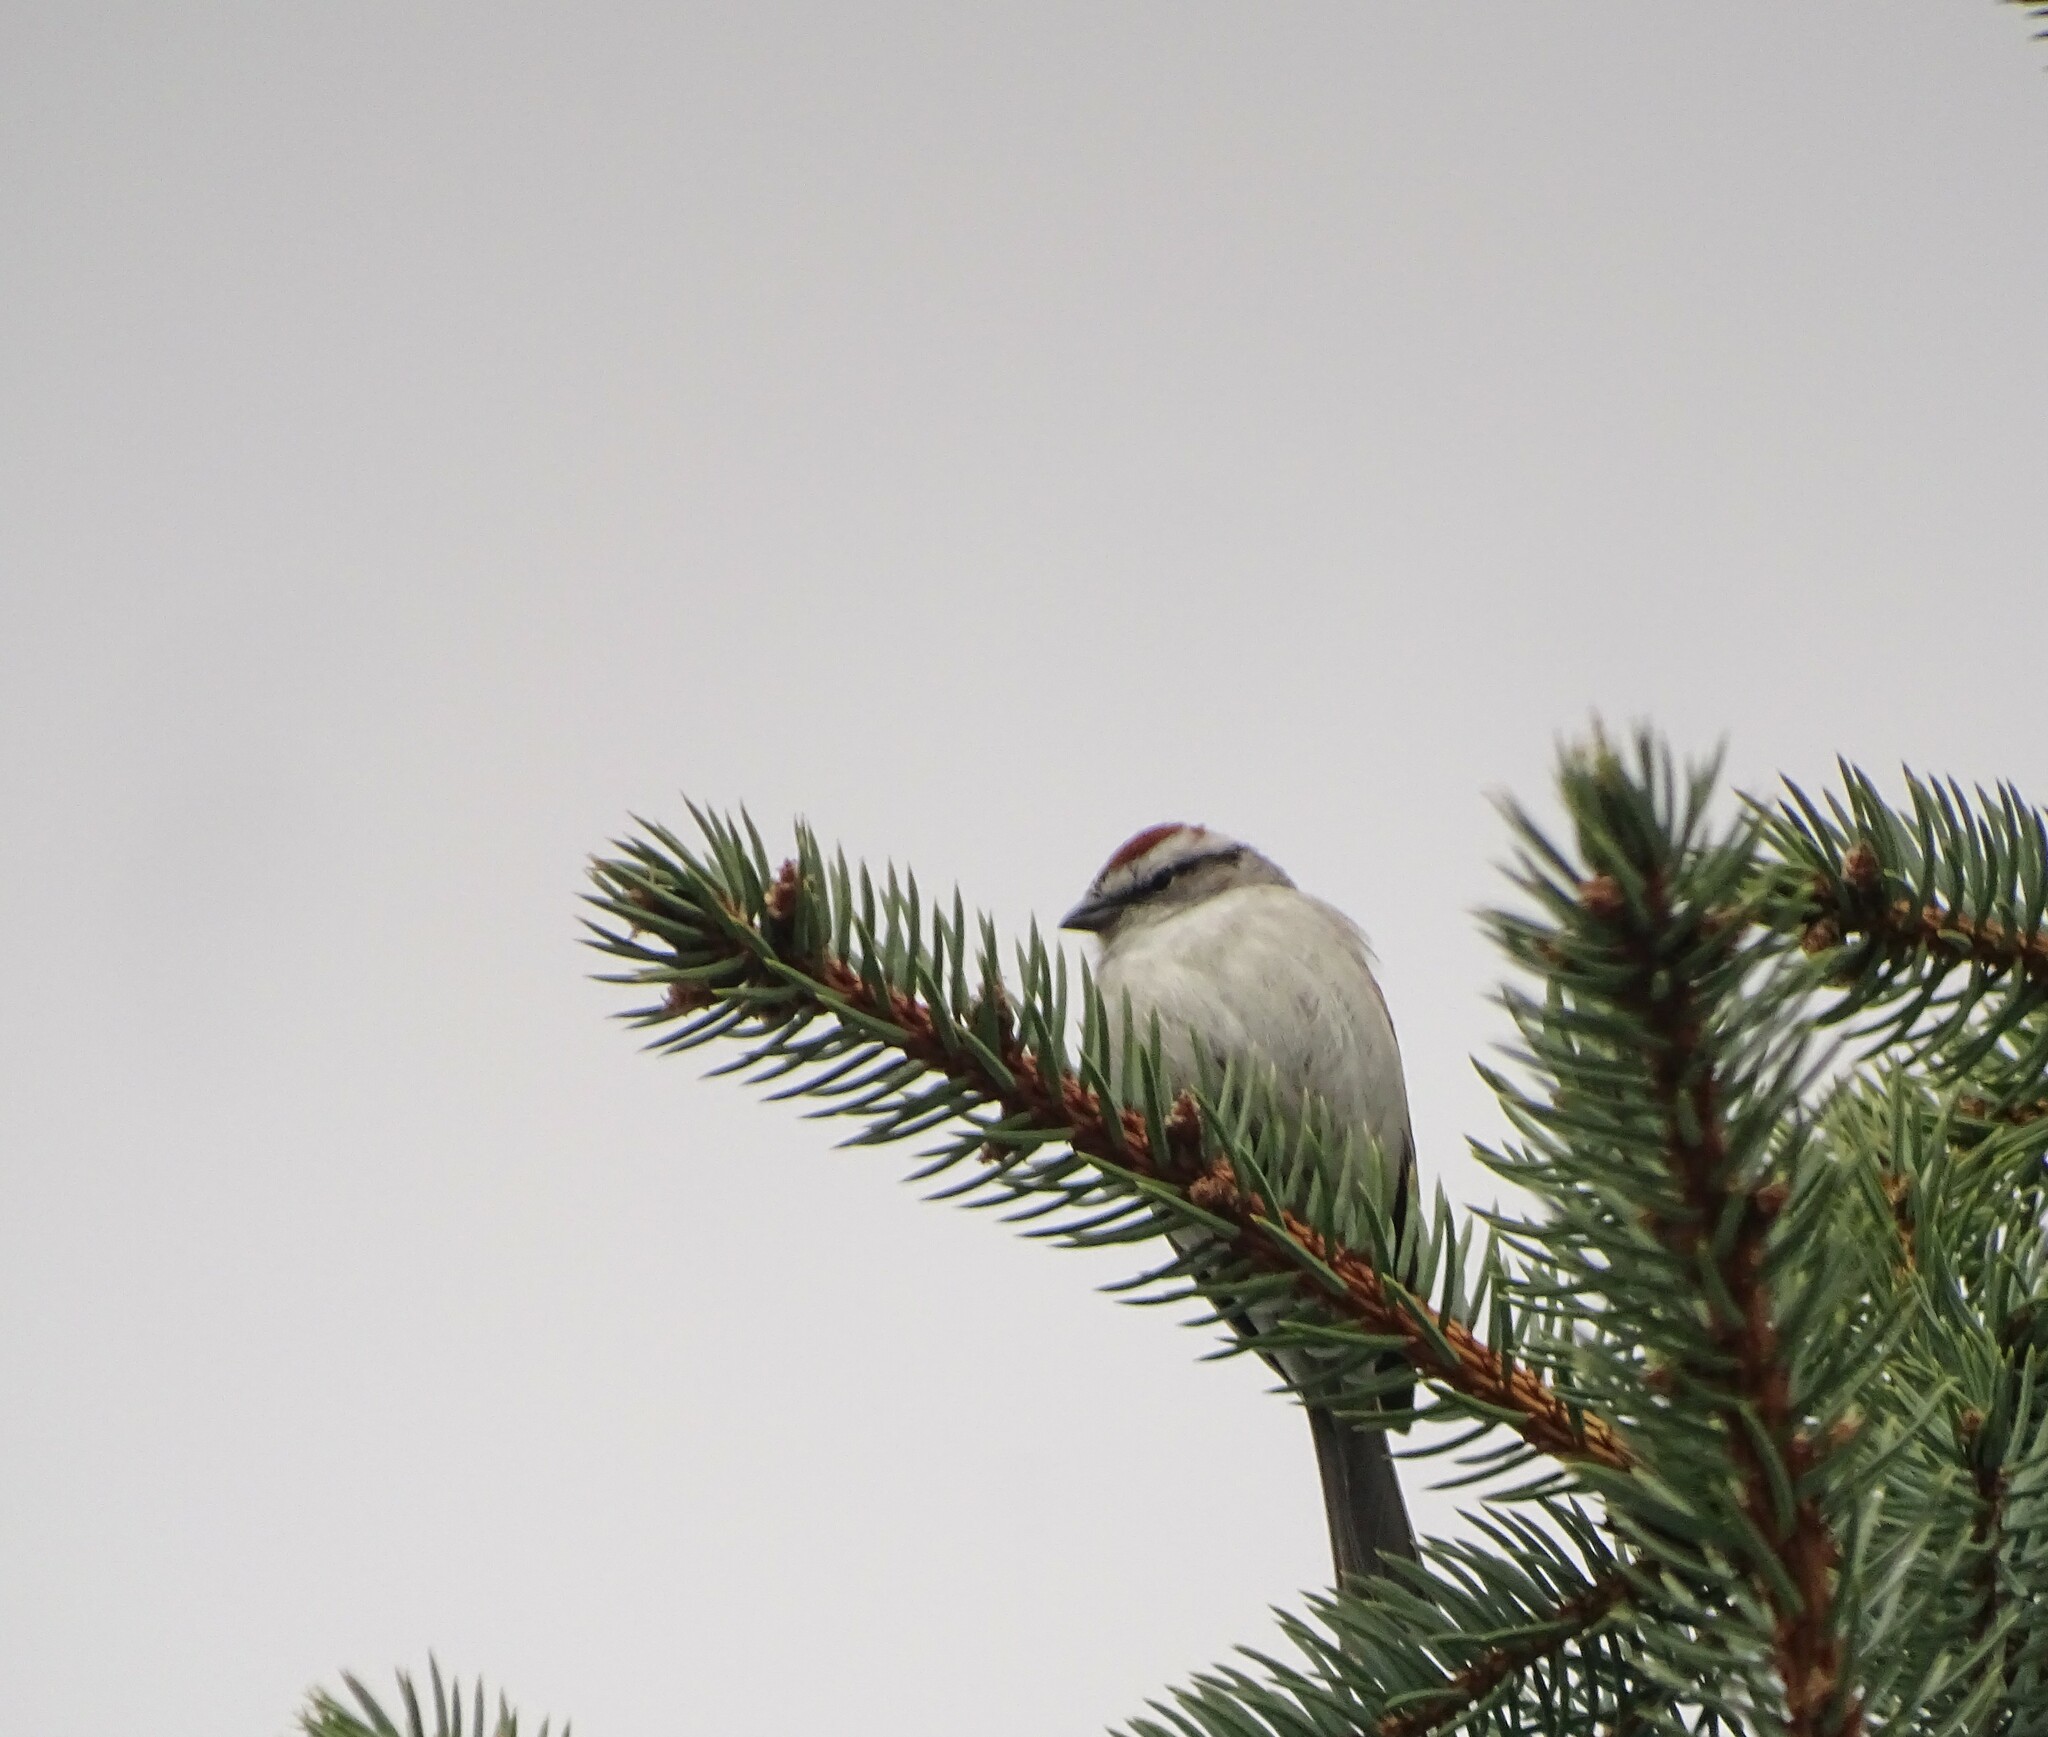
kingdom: Animalia
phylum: Chordata
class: Aves
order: Passeriformes
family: Passerellidae
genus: Spizella
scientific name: Spizella passerina
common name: Chipping sparrow
